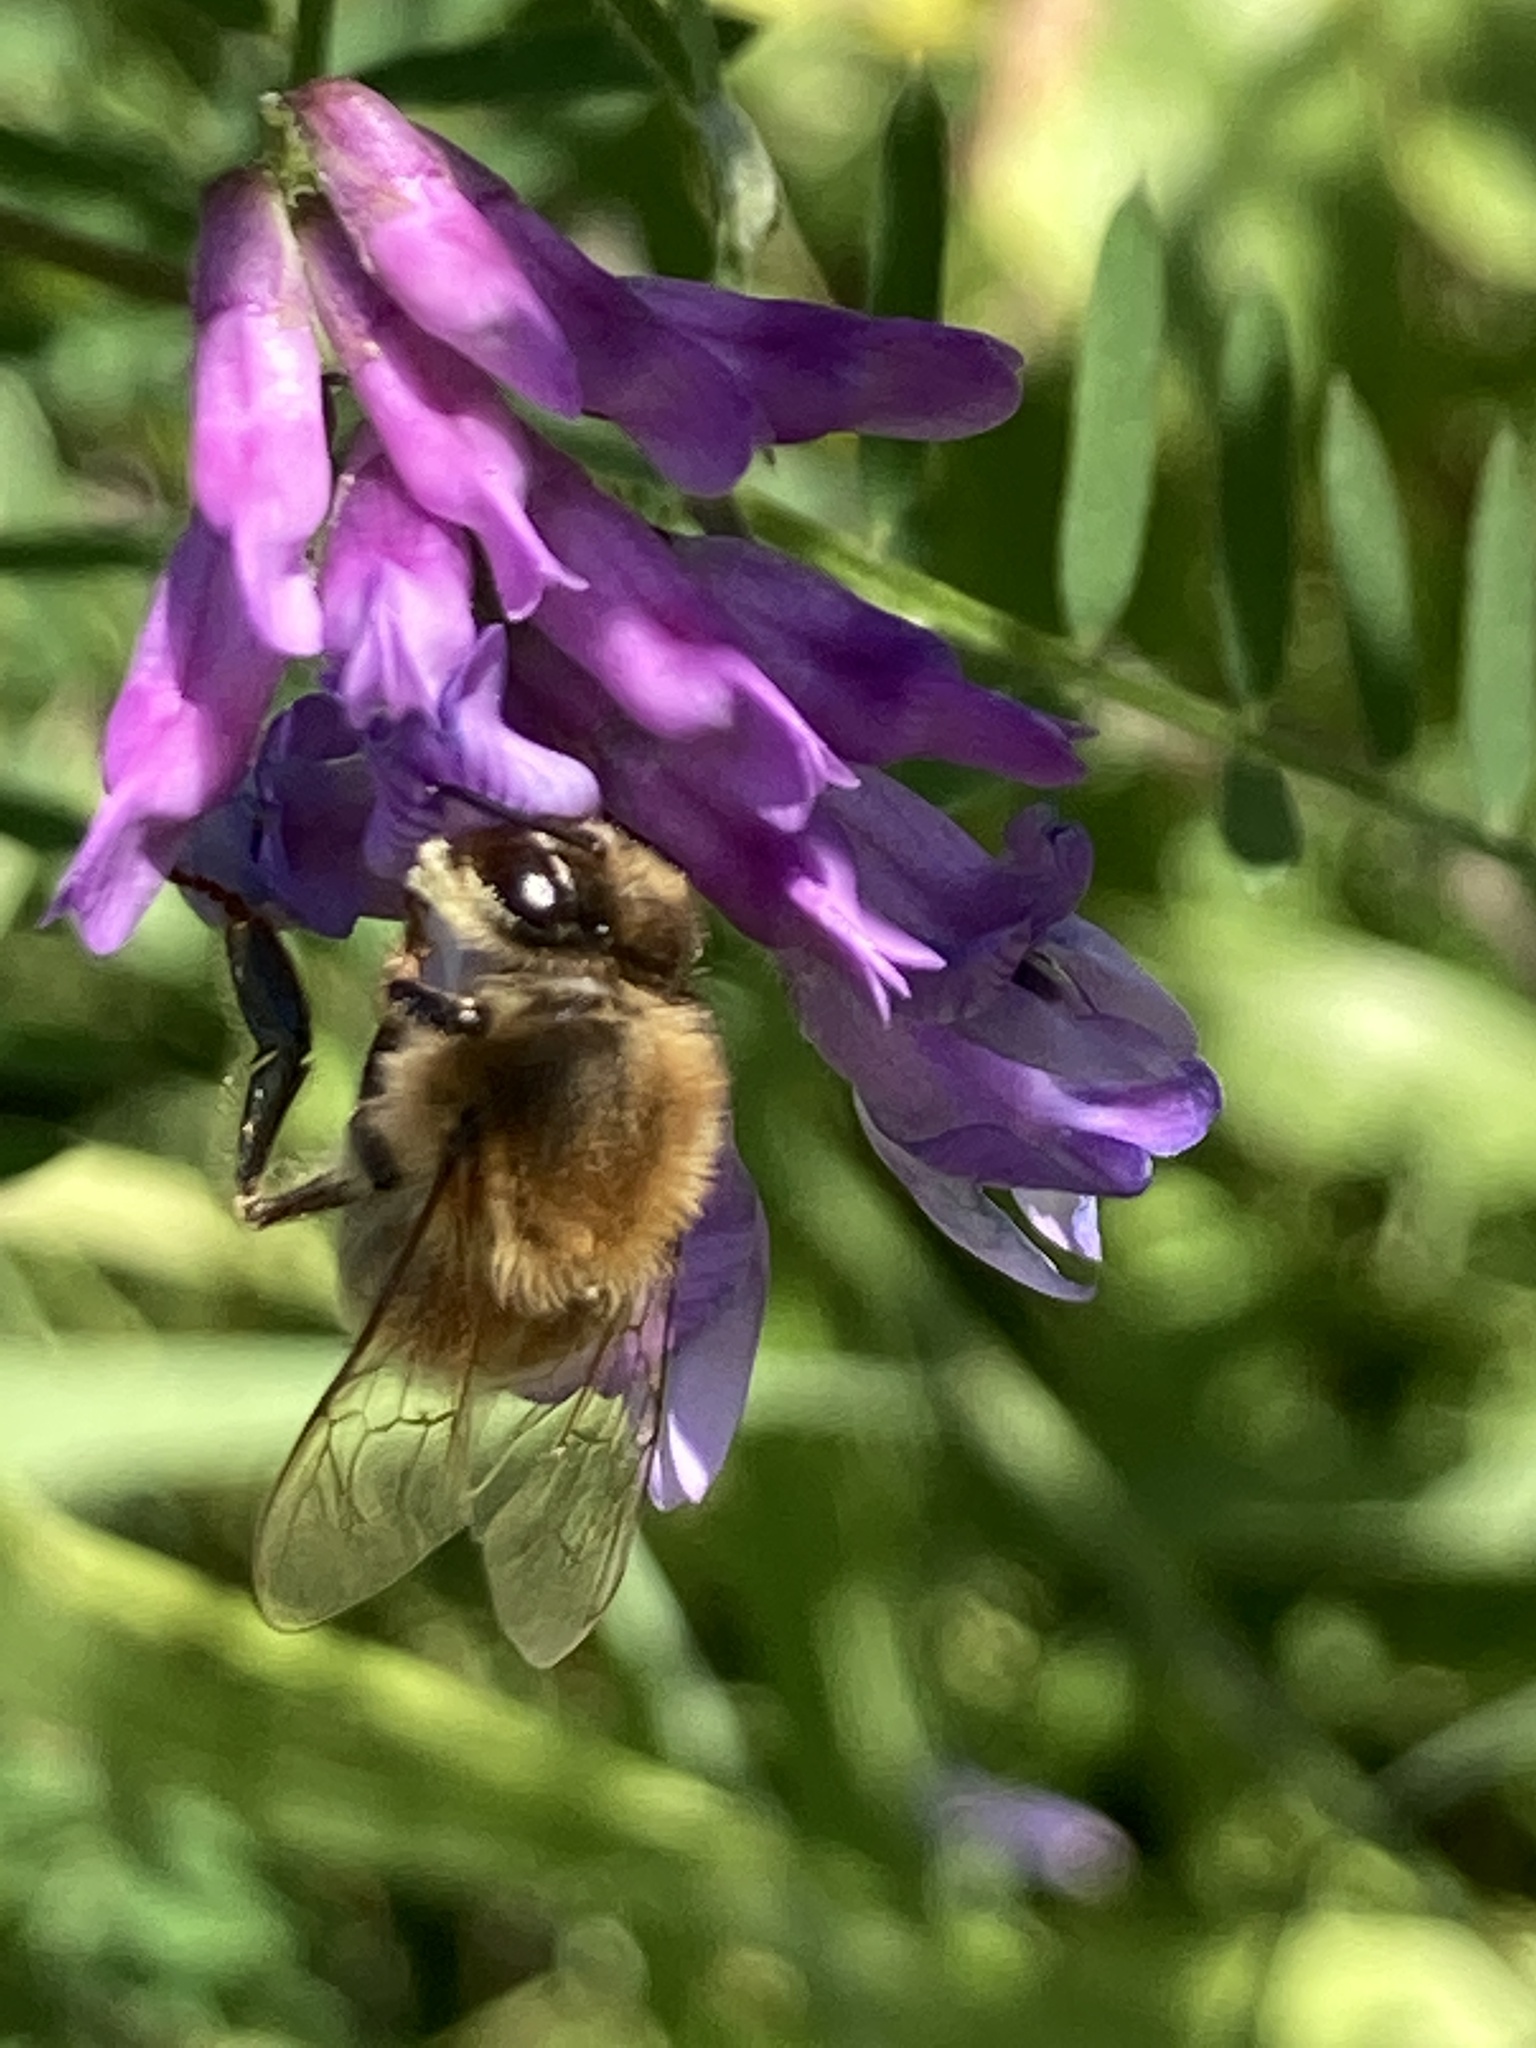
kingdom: Animalia
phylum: Arthropoda
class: Insecta
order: Hymenoptera
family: Apidae
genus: Apis
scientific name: Apis mellifera
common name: Honey bee
